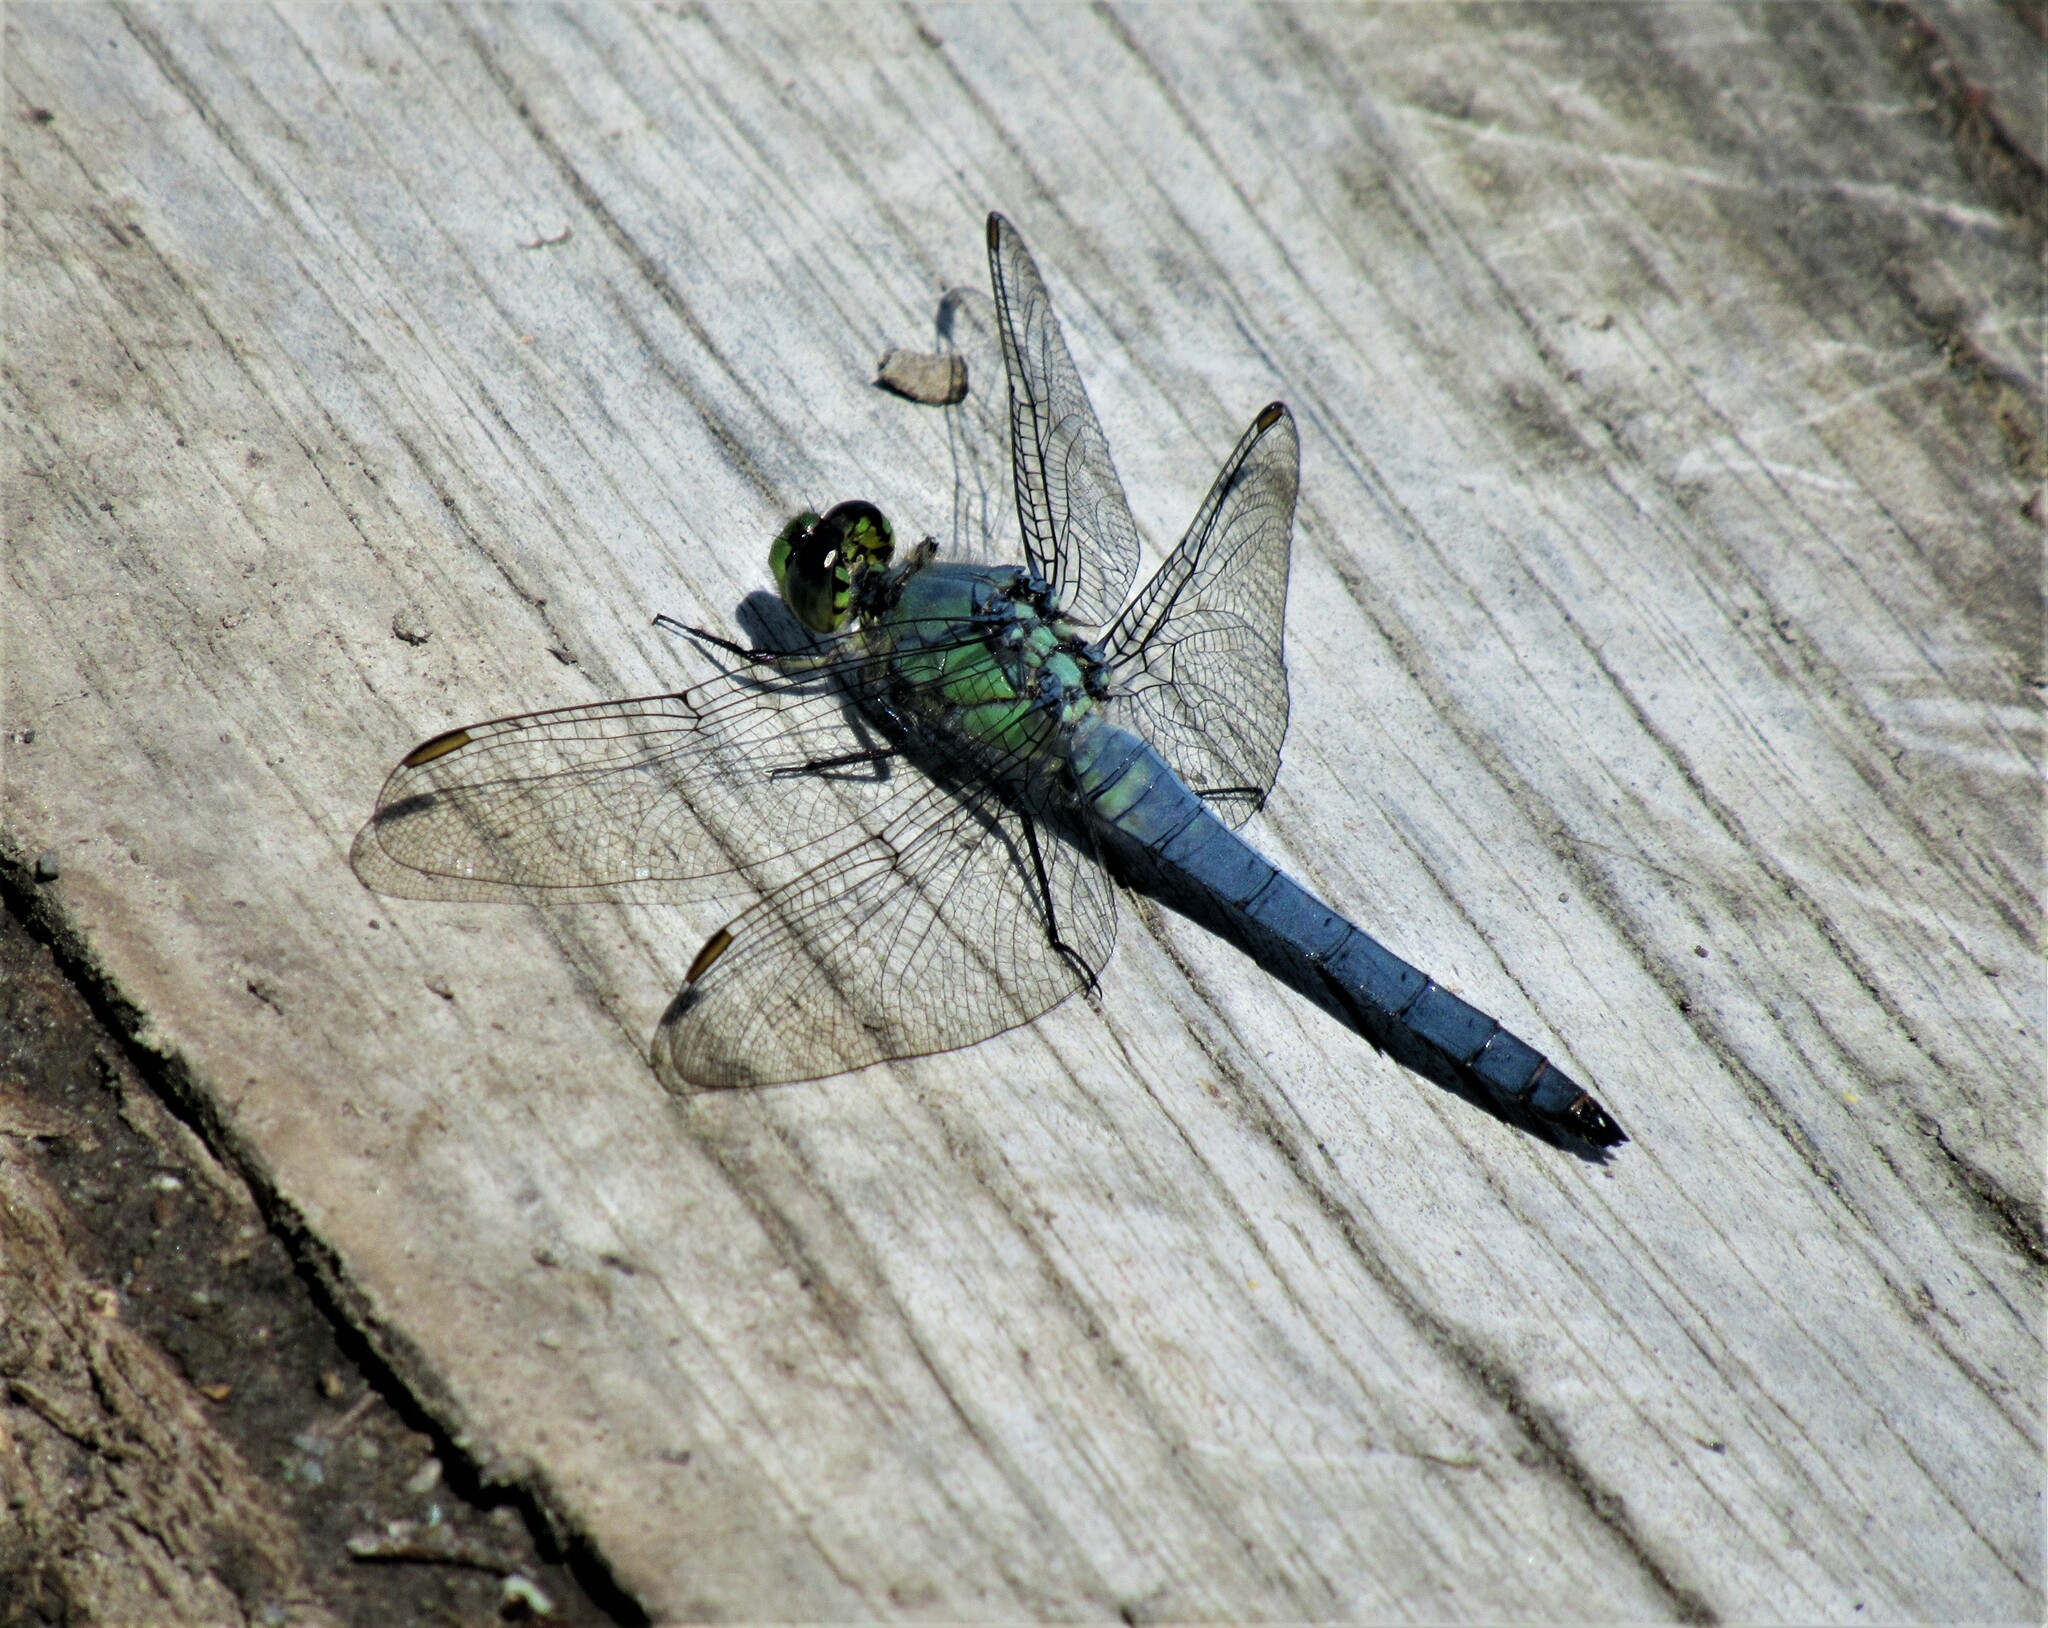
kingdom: Animalia
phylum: Arthropoda
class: Insecta
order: Odonata
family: Libellulidae
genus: Erythemis
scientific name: Erythemis collocata
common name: Western pondhawk
